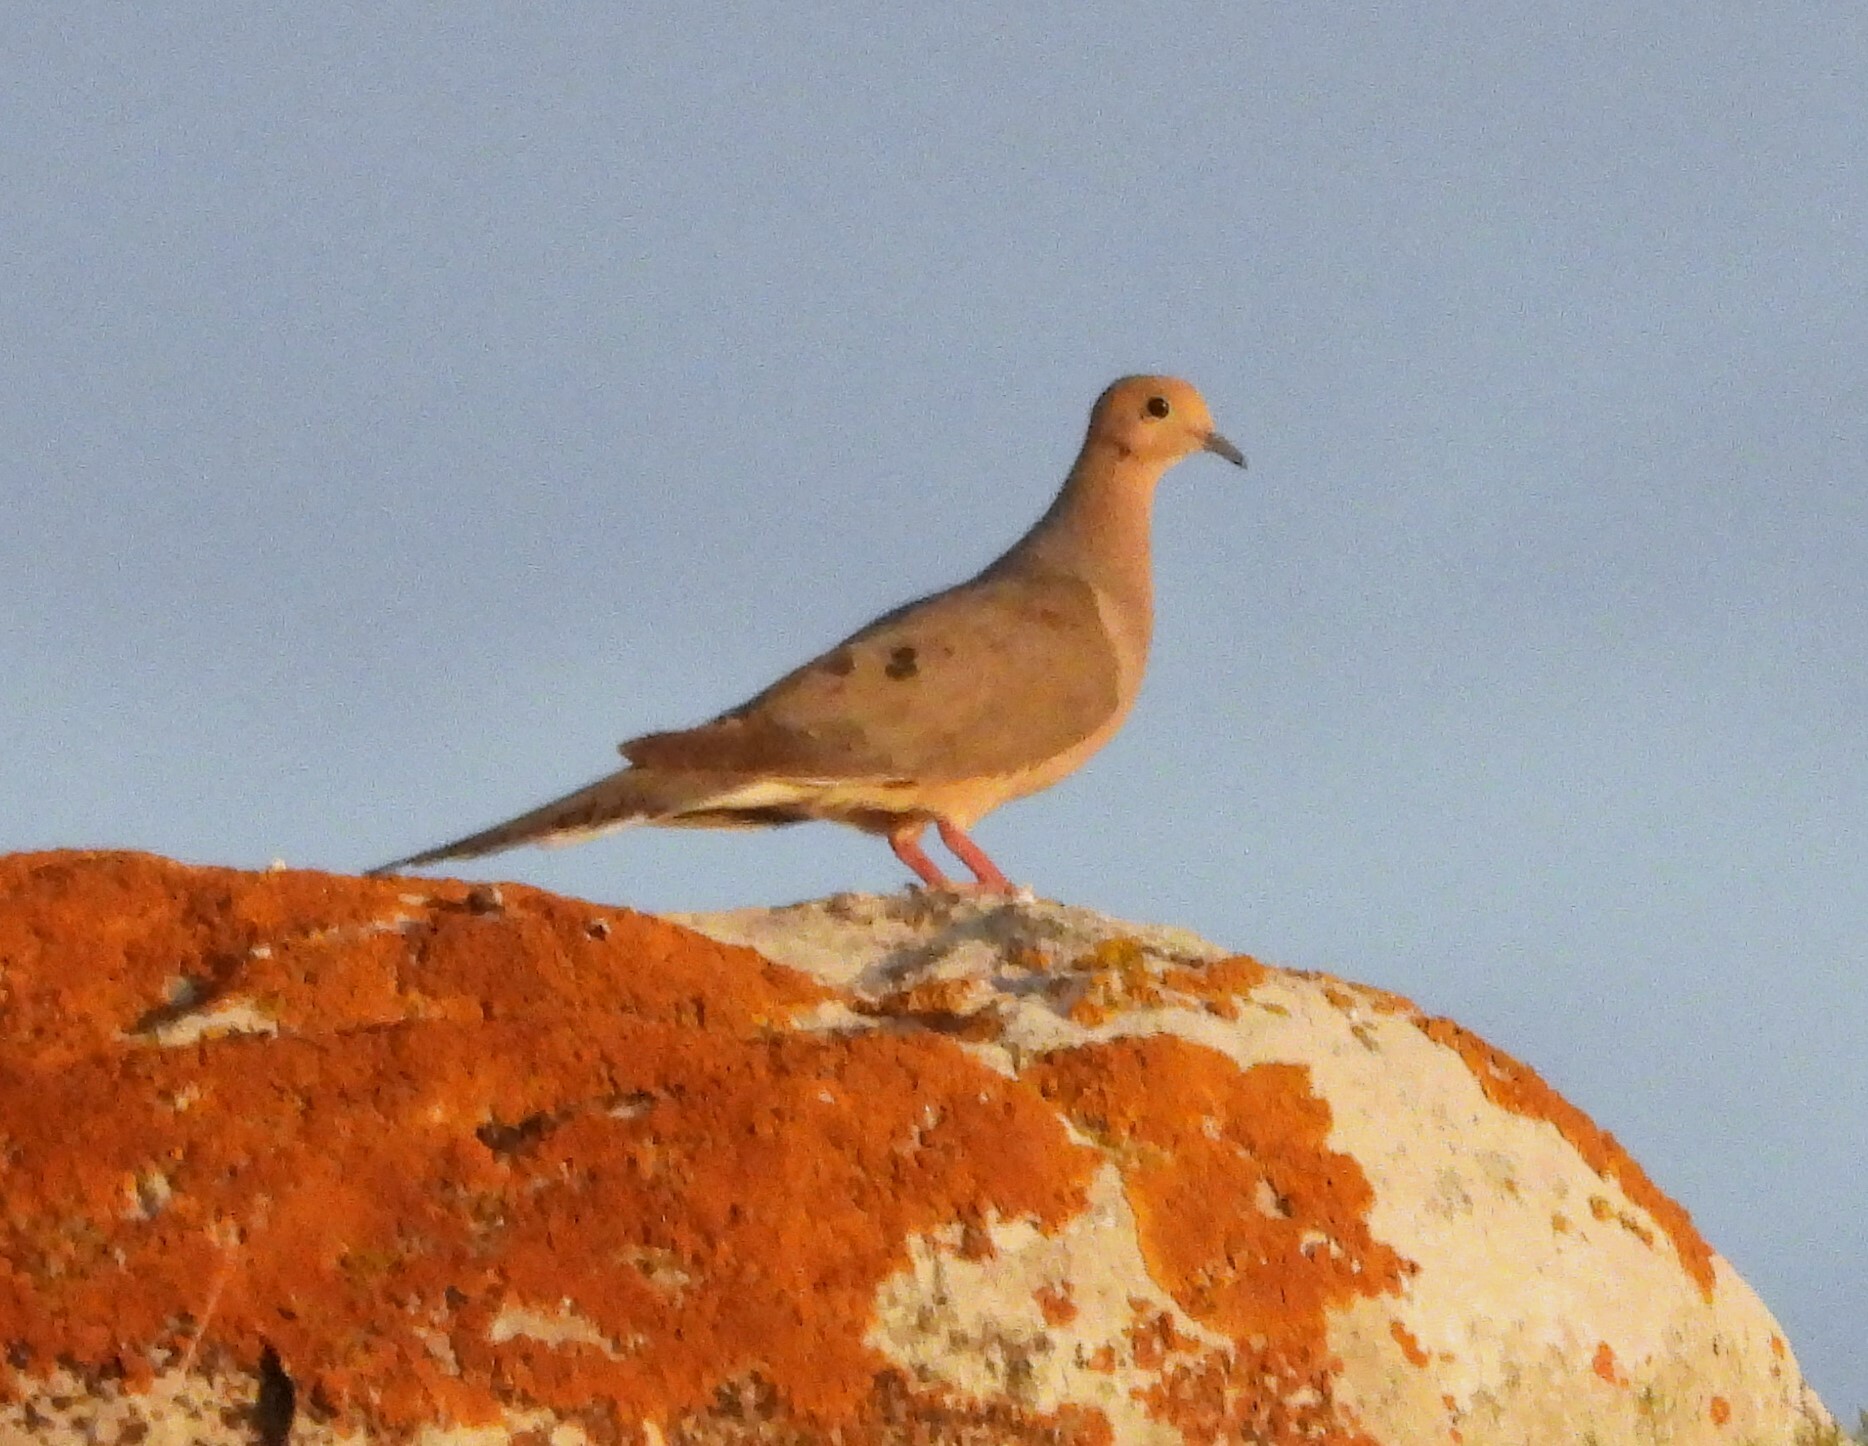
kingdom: Animalia
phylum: Chordata
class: Aves
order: Columbiformes
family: Columbidae
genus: Zenaida
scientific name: Zenaida macroura
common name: Mourning dove
